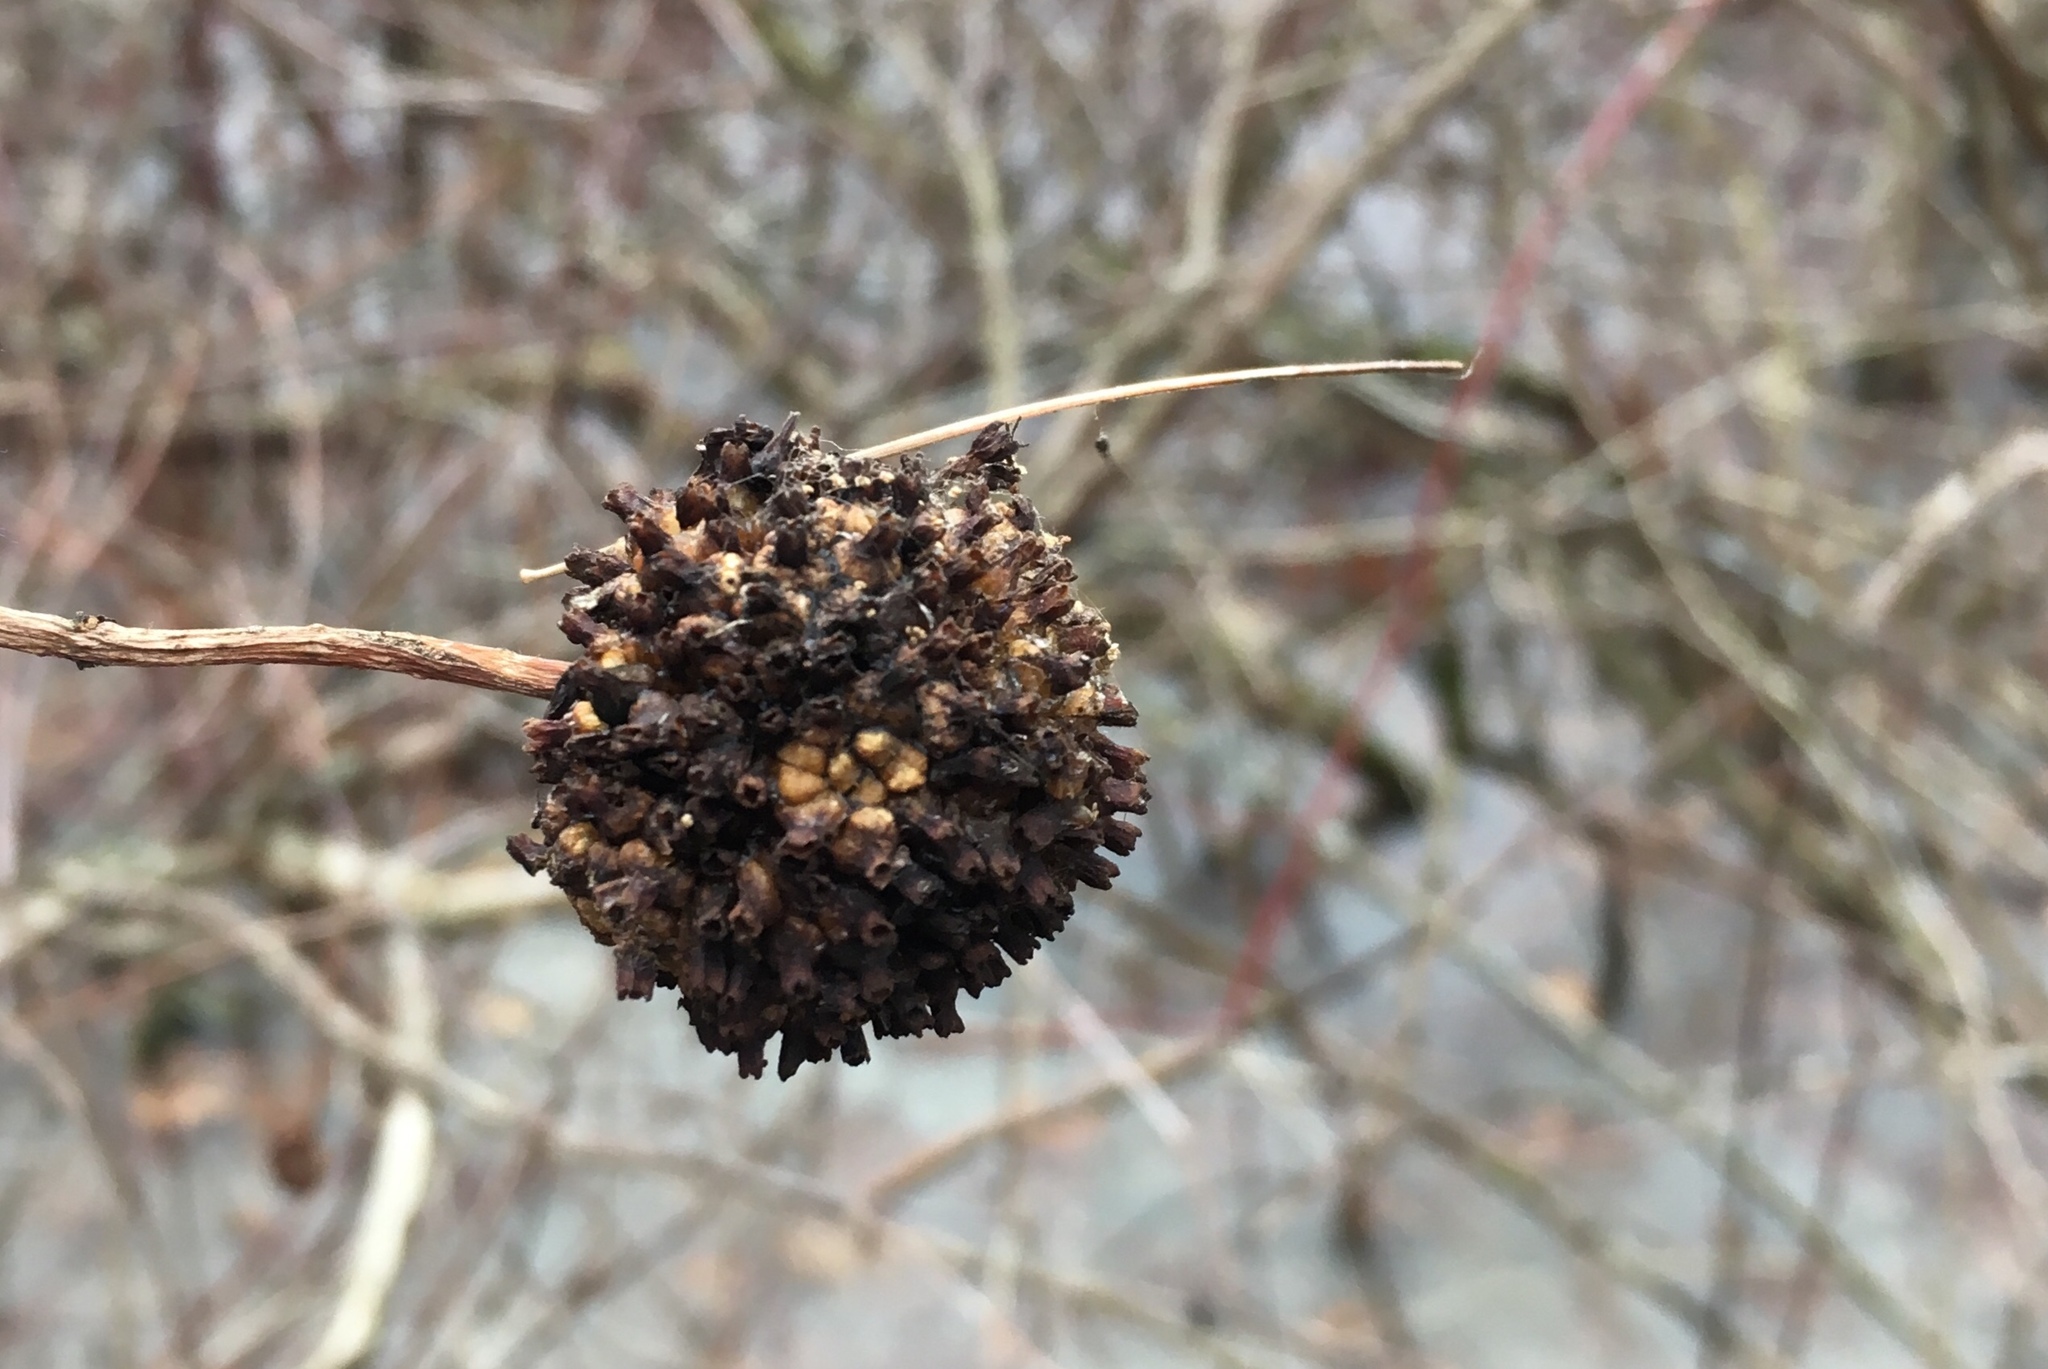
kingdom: Plantae
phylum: Tracheophyta
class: Magnoliopsida
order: Gentianales
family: Rubiaceae
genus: Cephalanthus
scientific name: Cephalanthus occidentalis
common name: Button-willow
